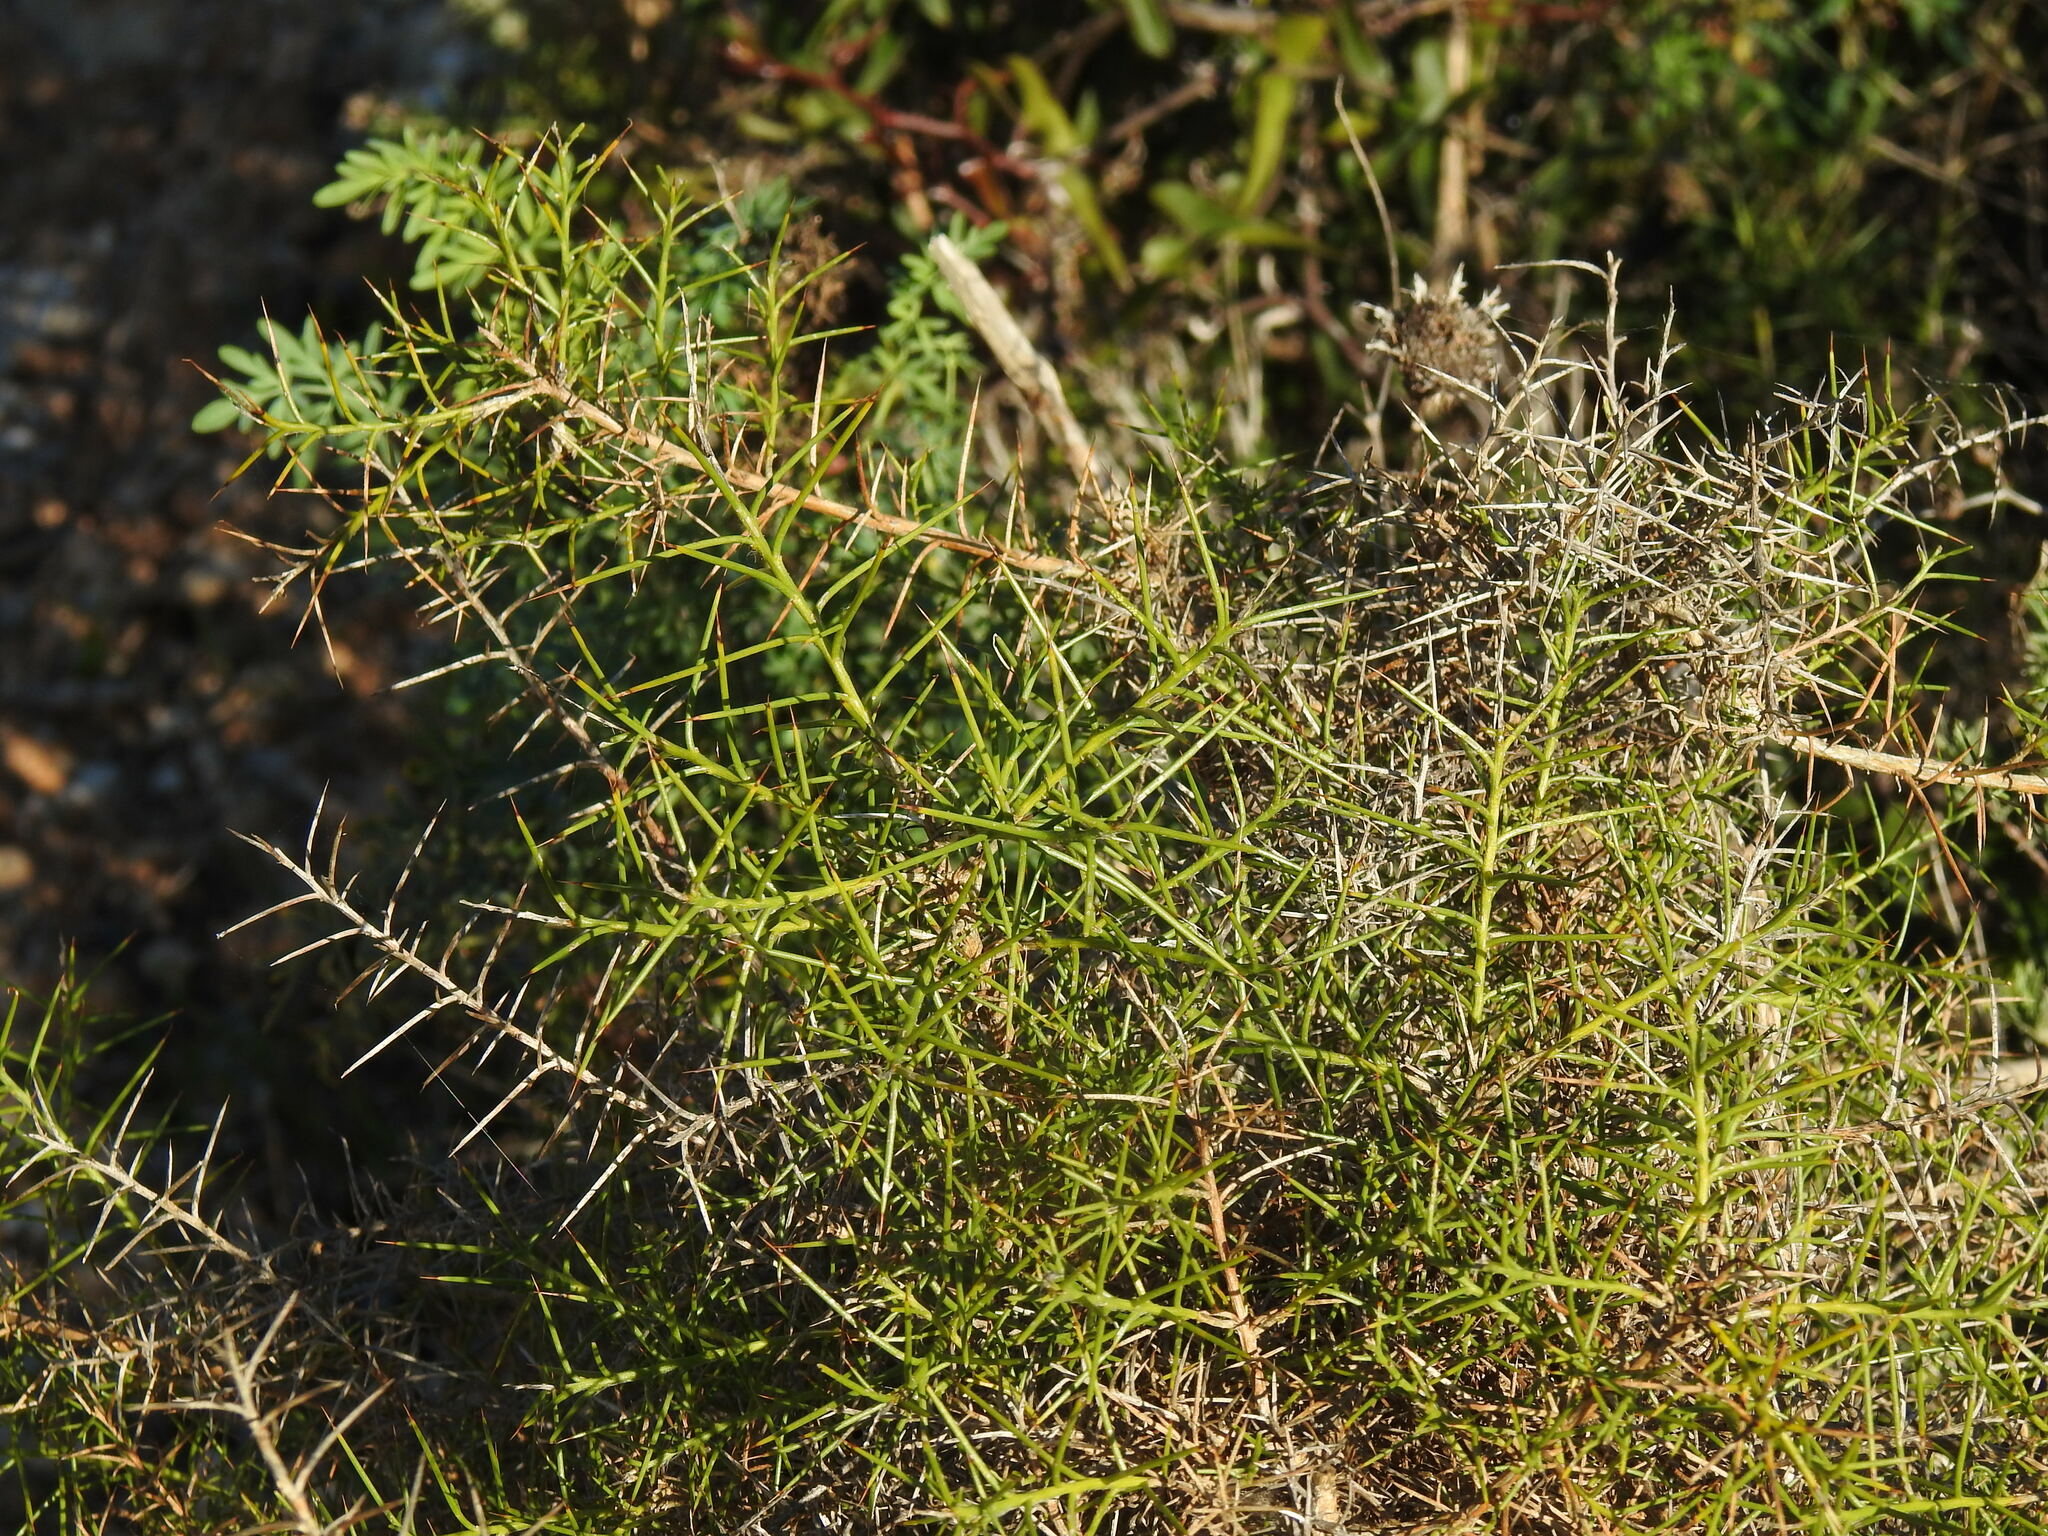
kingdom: Plantae
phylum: Tracheophyta
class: Magnoliopsida
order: Fabales
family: Fabaceae
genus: Genista
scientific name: Genista hirsuta
